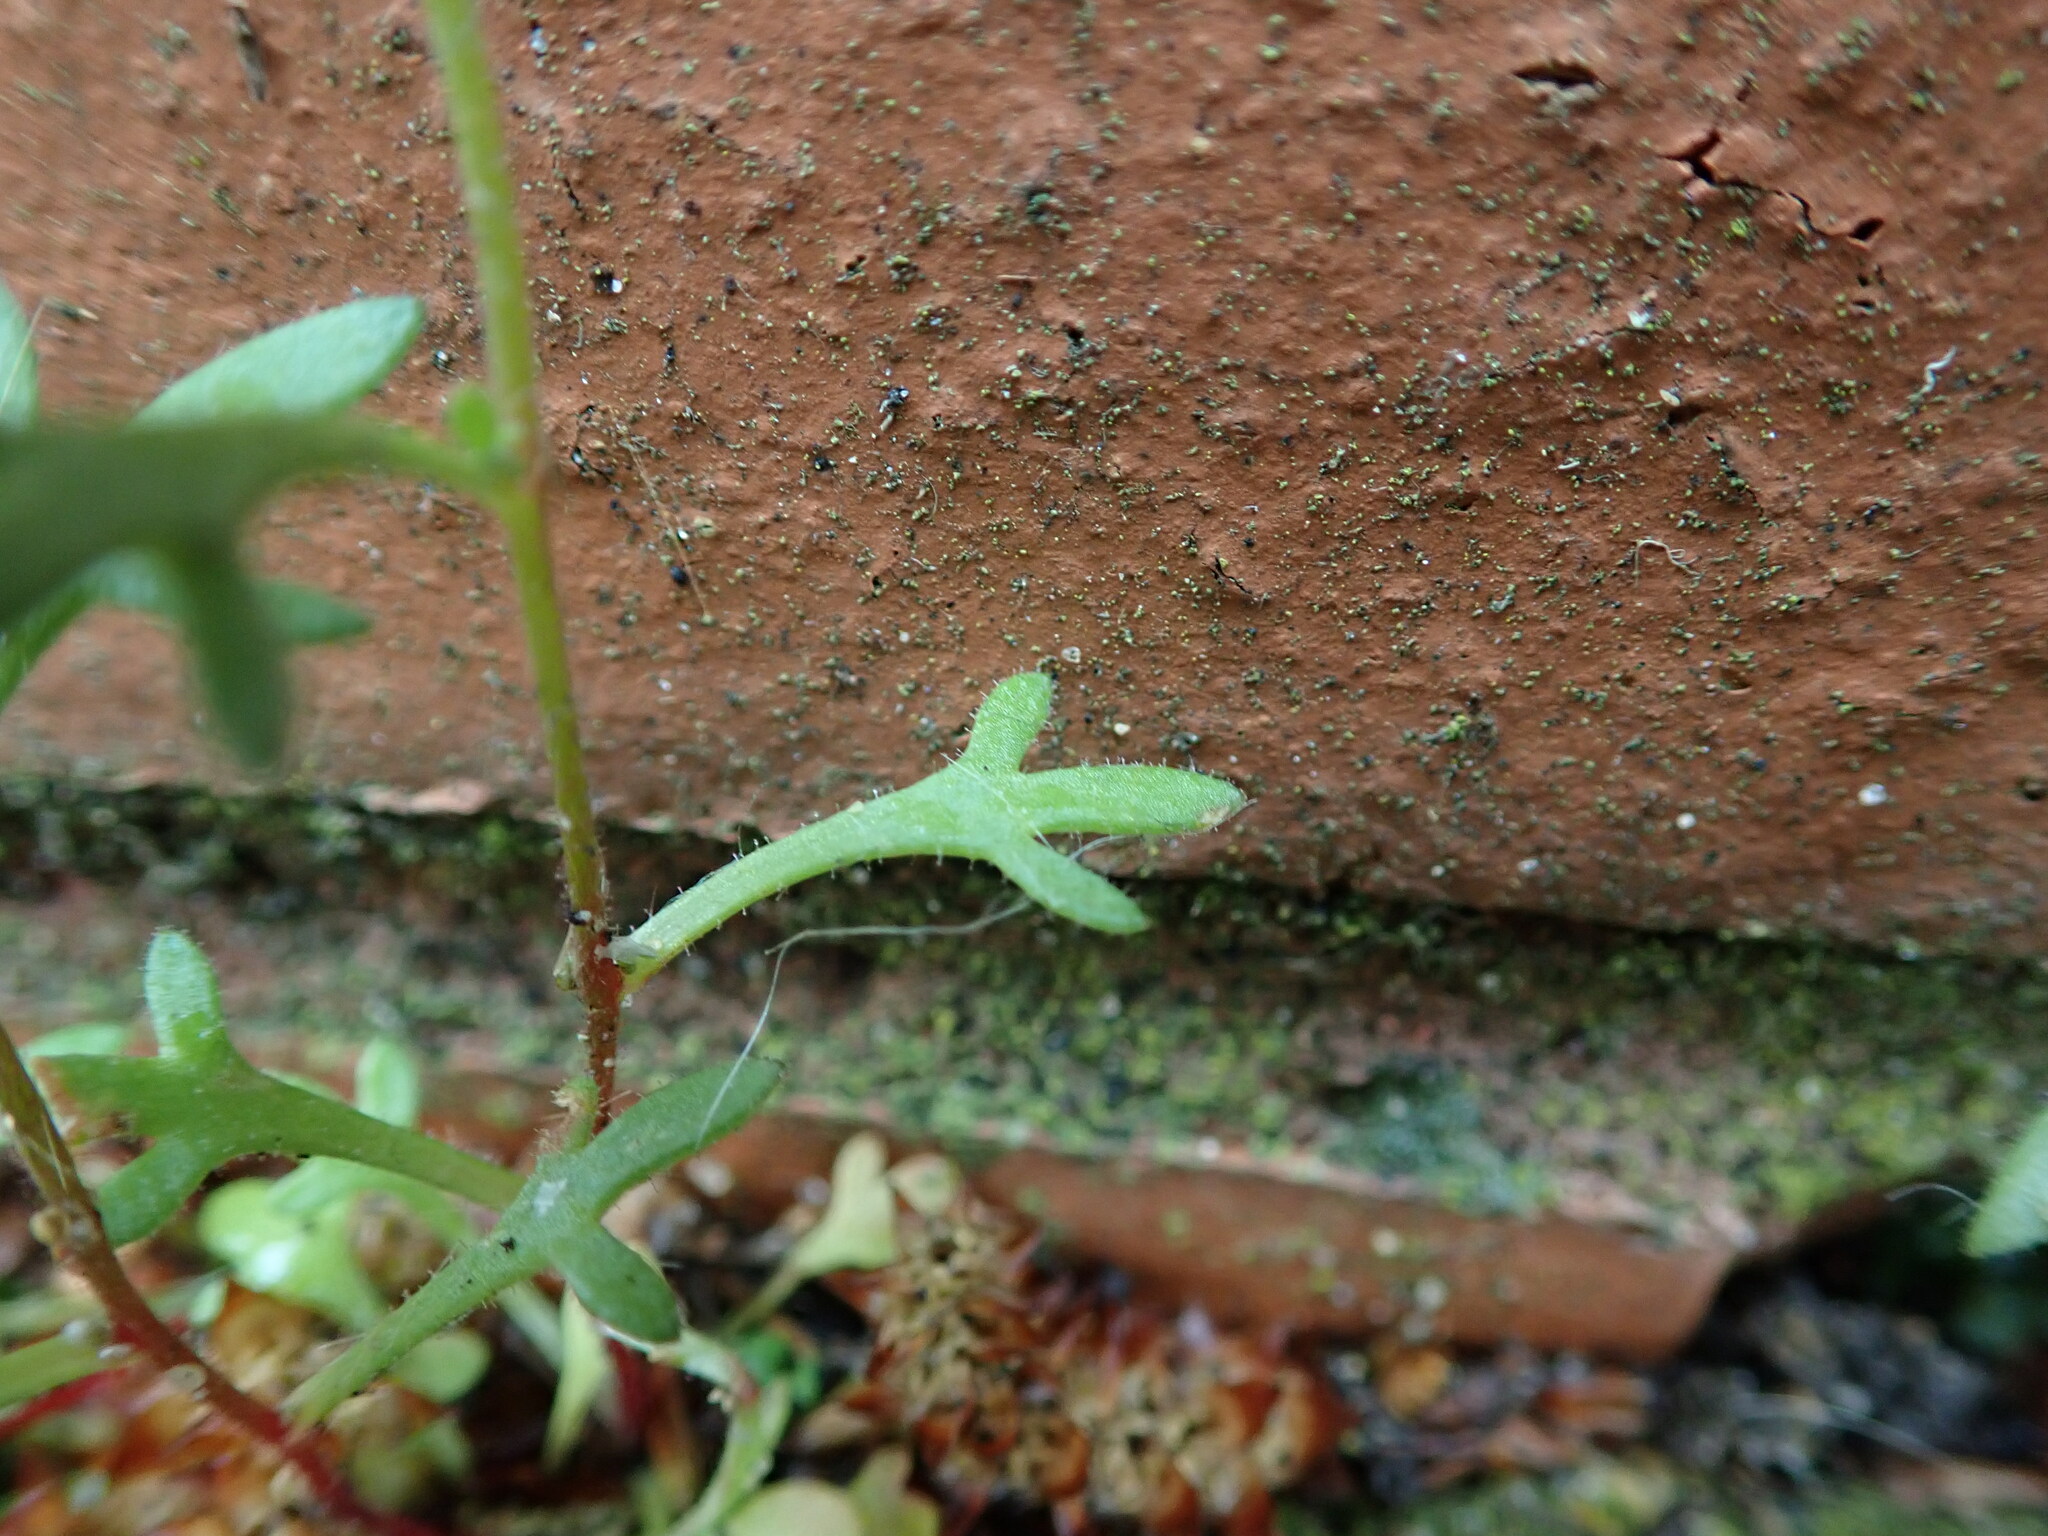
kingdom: Plantae
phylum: Tracheophyta
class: Magnoliopsida
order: Saxifragales
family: Saxifragaceae
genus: Saxifraga
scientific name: Saxifraga tridactylites
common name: Rue-leaved saxifrage
